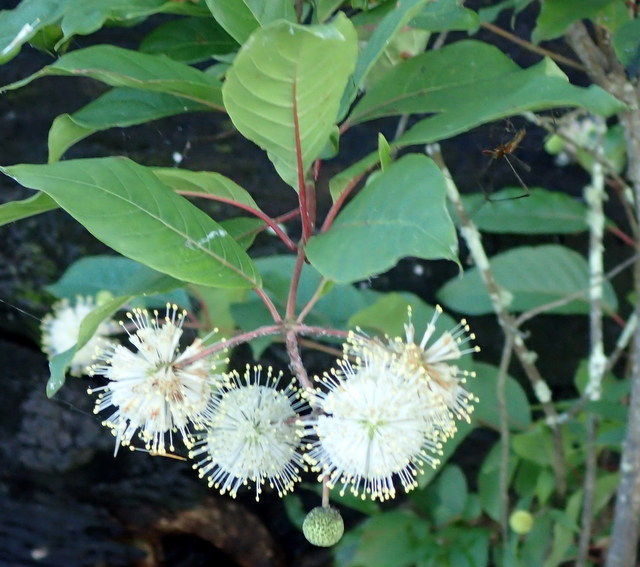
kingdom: Plantae
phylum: Tracheophyta
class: Magnoliopsida
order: Gentianales
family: Rubiaceae
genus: Cephalanthus
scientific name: Cephalanthus occidentalis
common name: Button-willow
